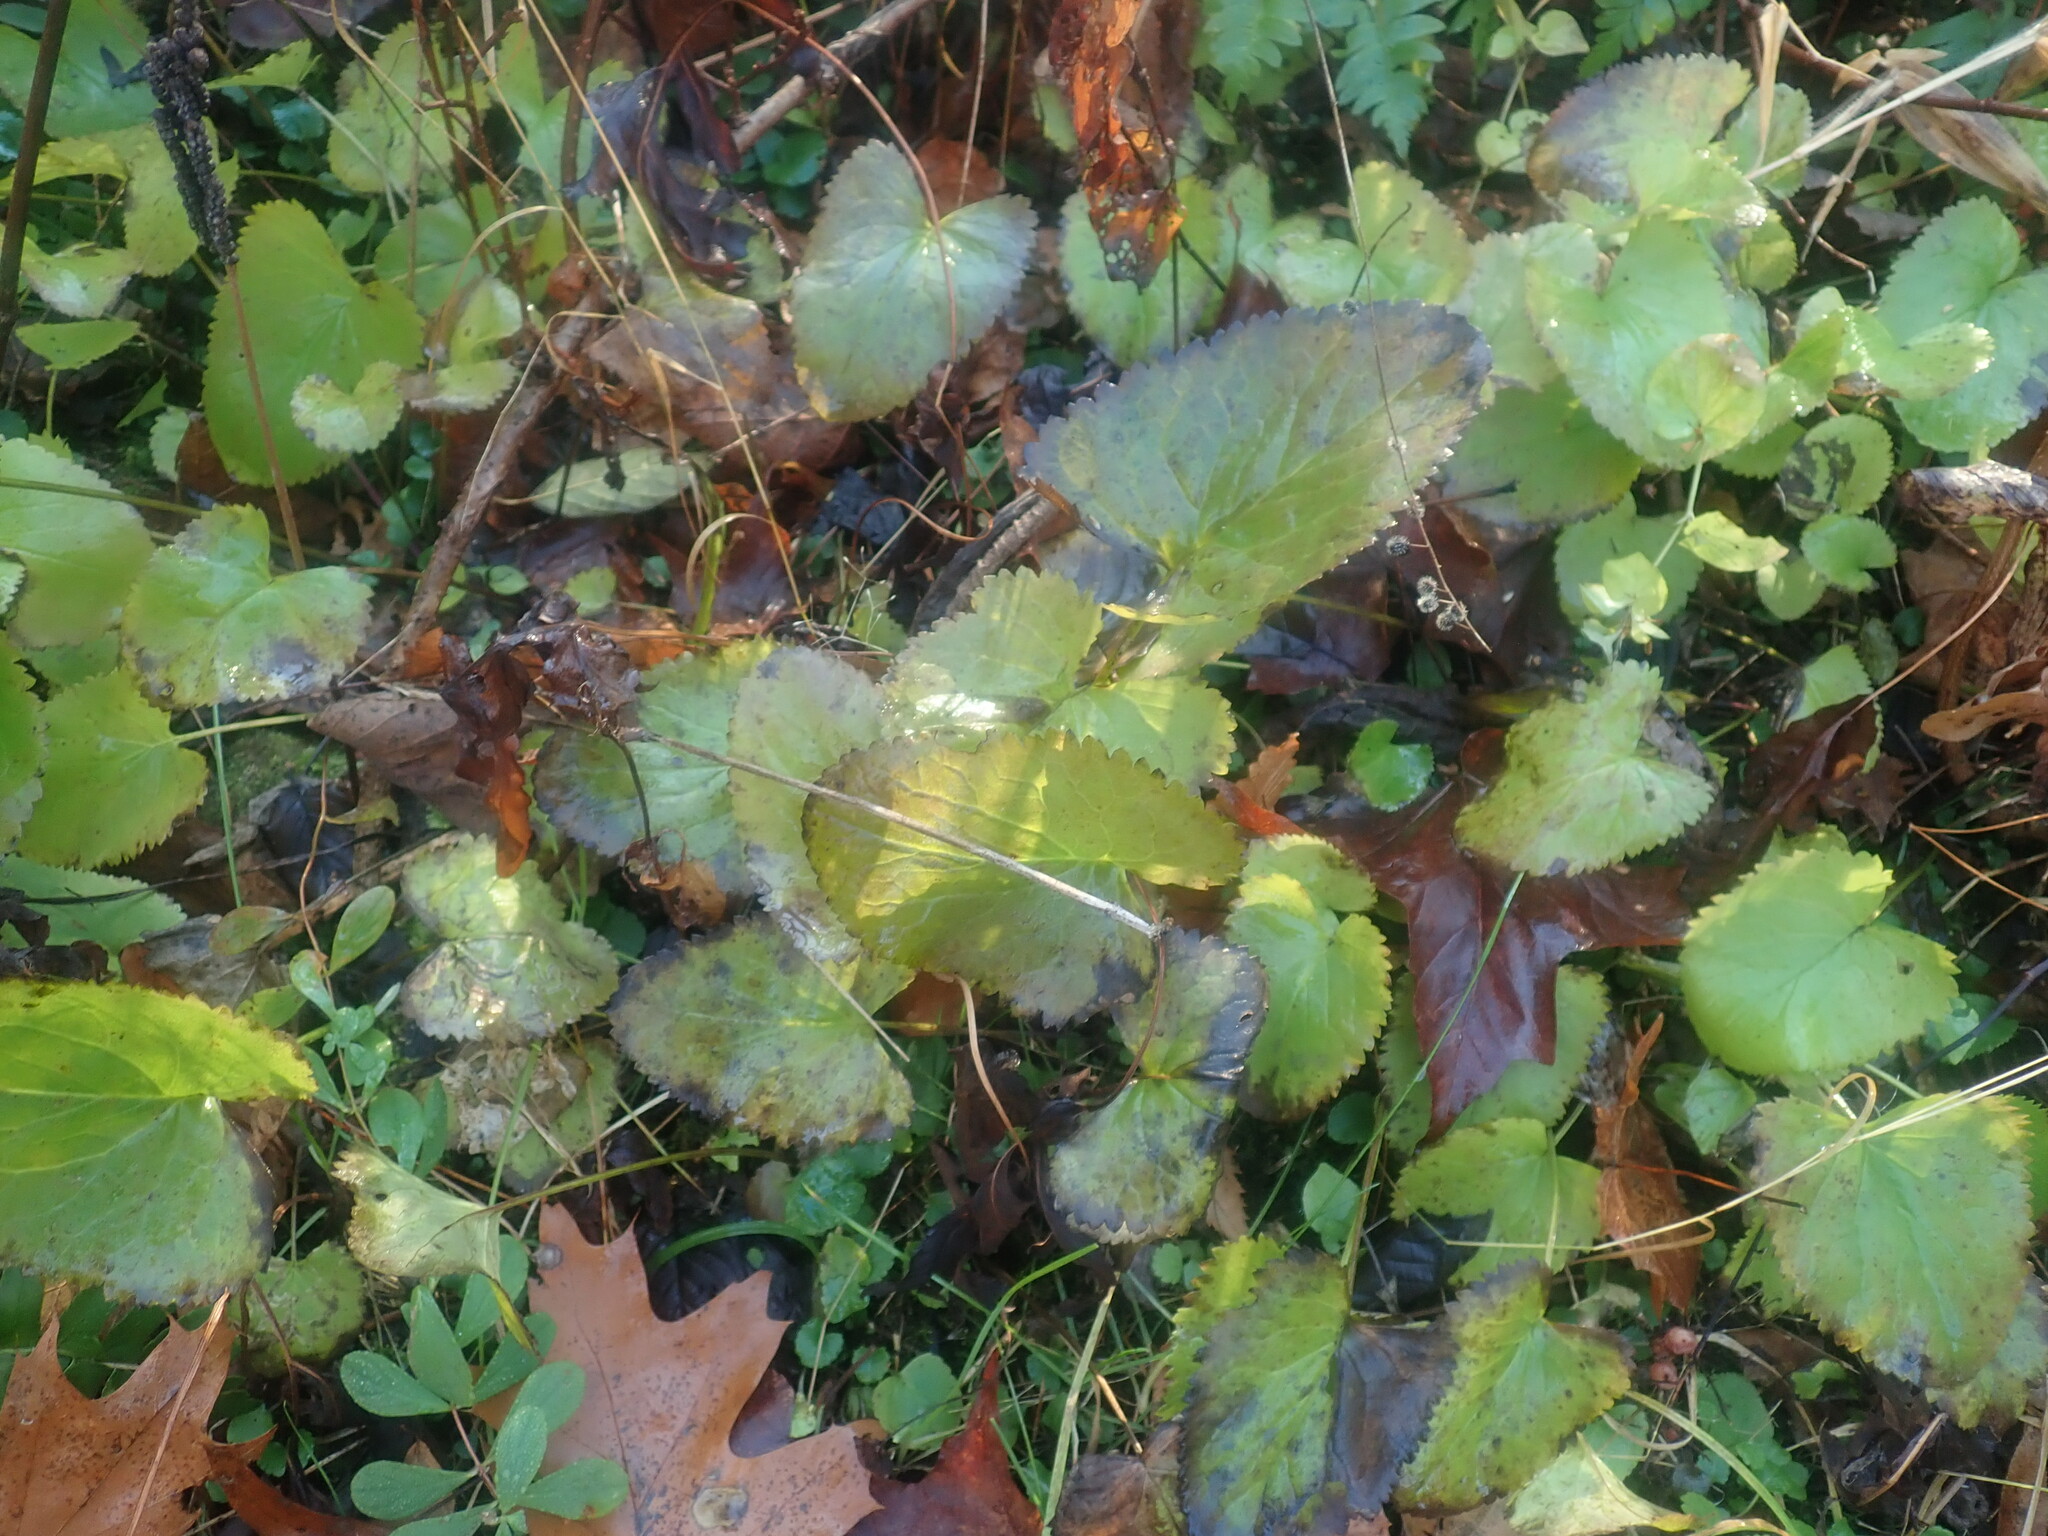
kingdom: Plantae
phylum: Tracheophyta
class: Magnoliopsida
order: Asterales
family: Asteraceae
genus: Packera
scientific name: Packera aurea
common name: Golden groundsel
